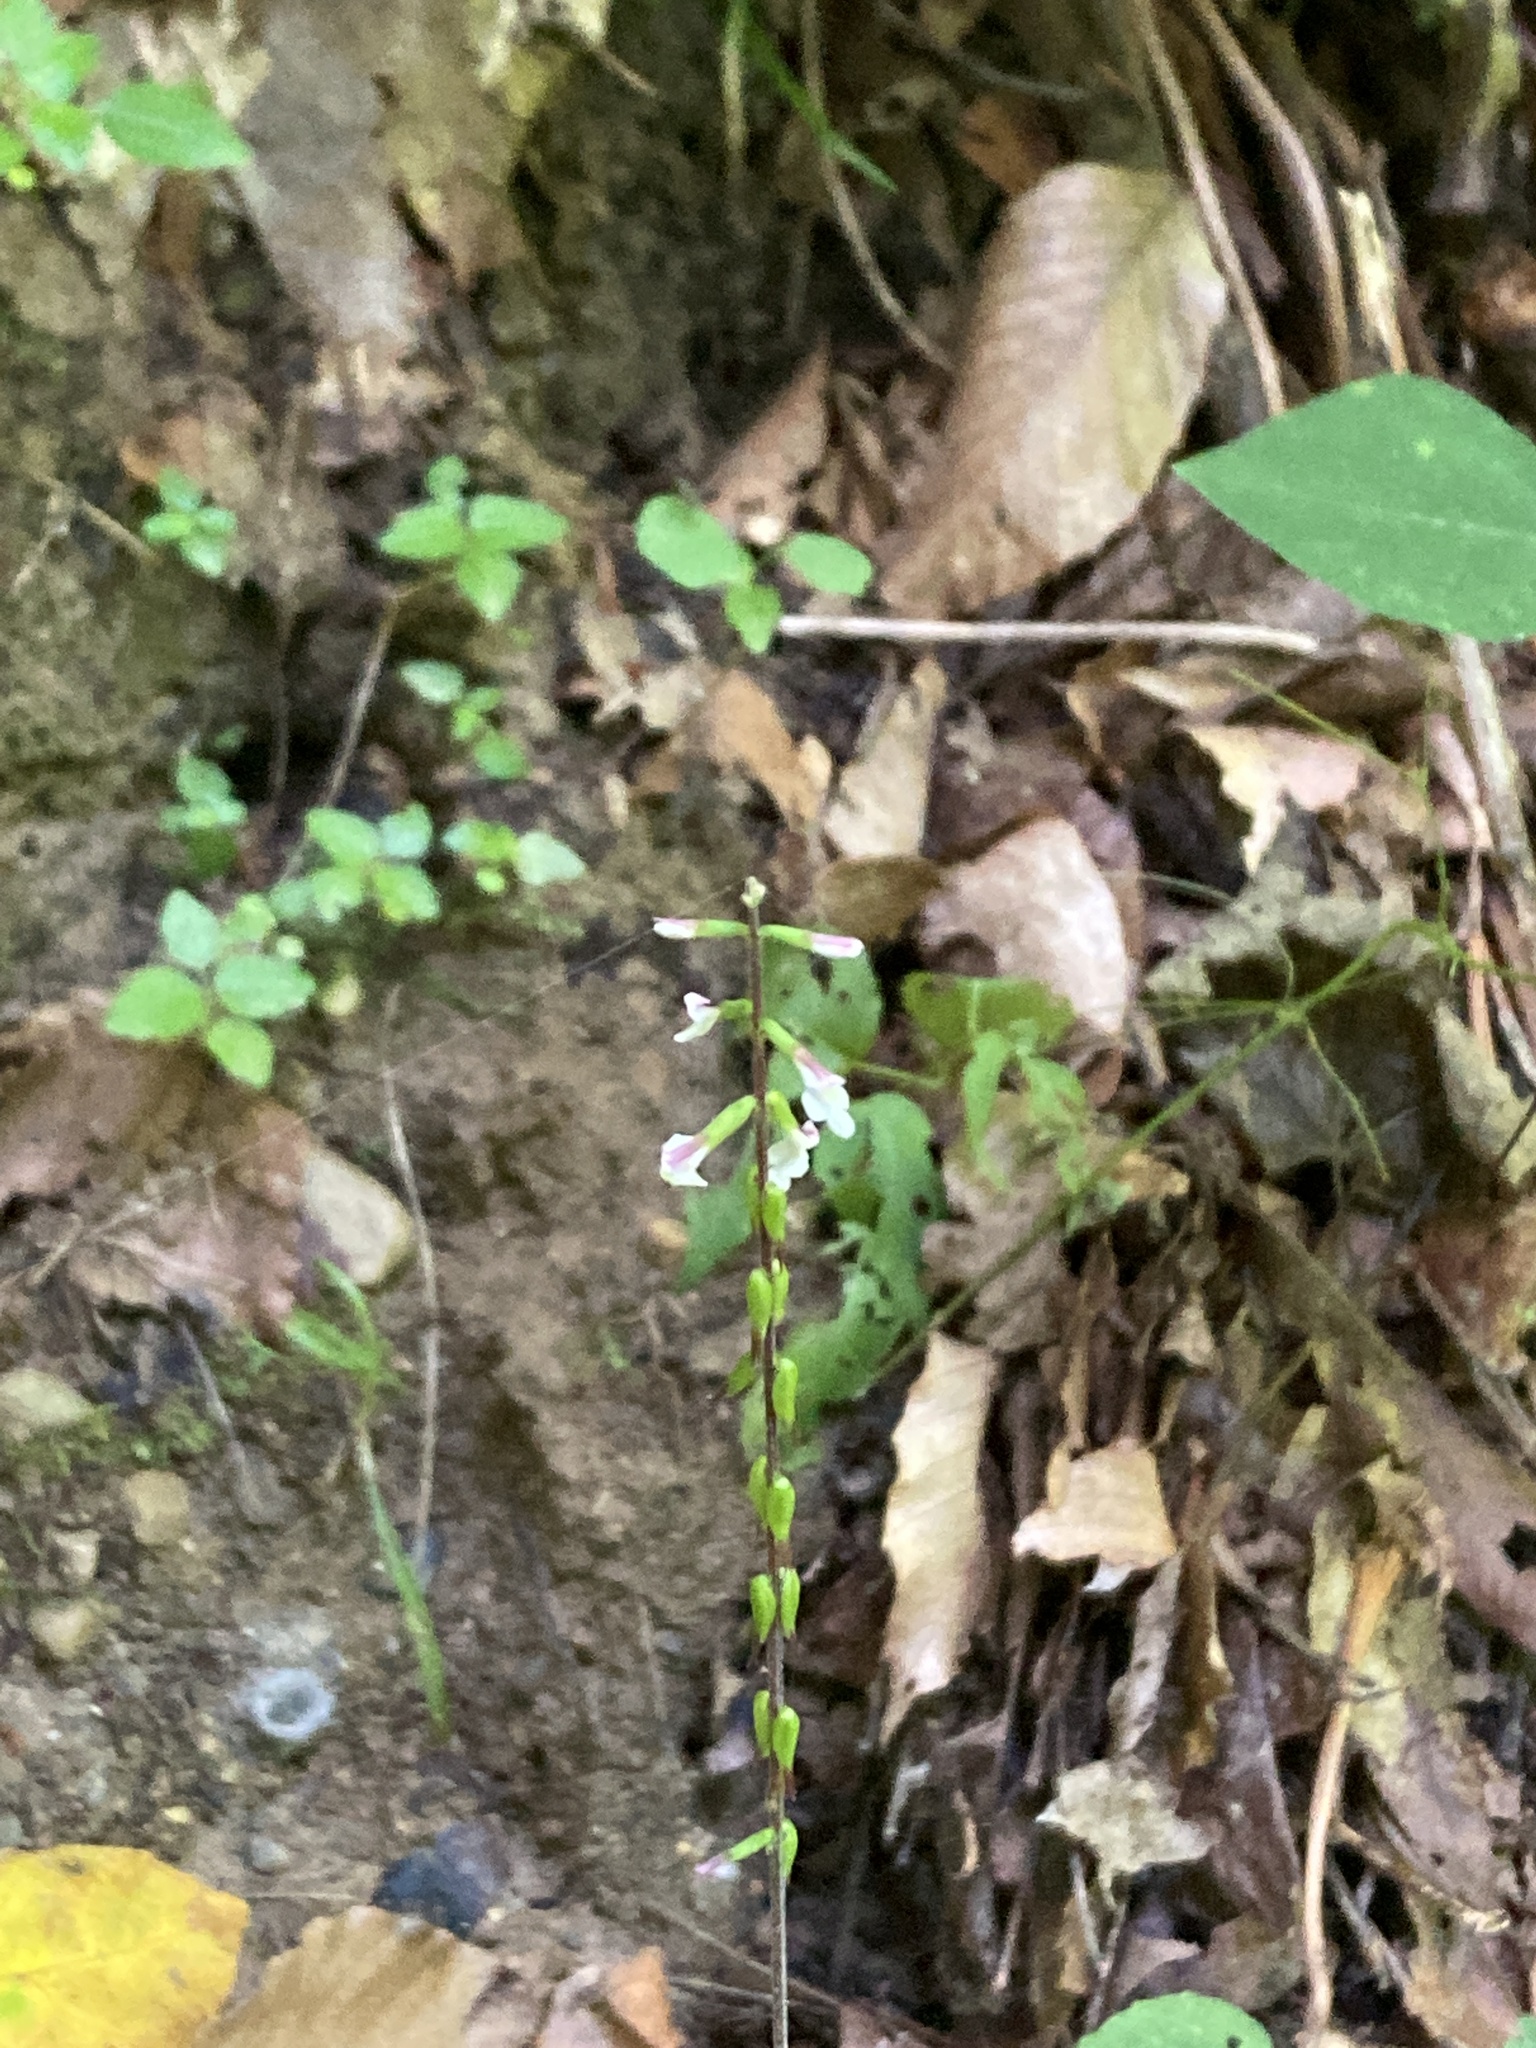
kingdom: Plantae
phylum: Tracheophyta
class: Magnoliopsida
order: Lamiales
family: Phrymaceae
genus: Phryma
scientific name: Phryma leptostachya
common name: American lopseed
